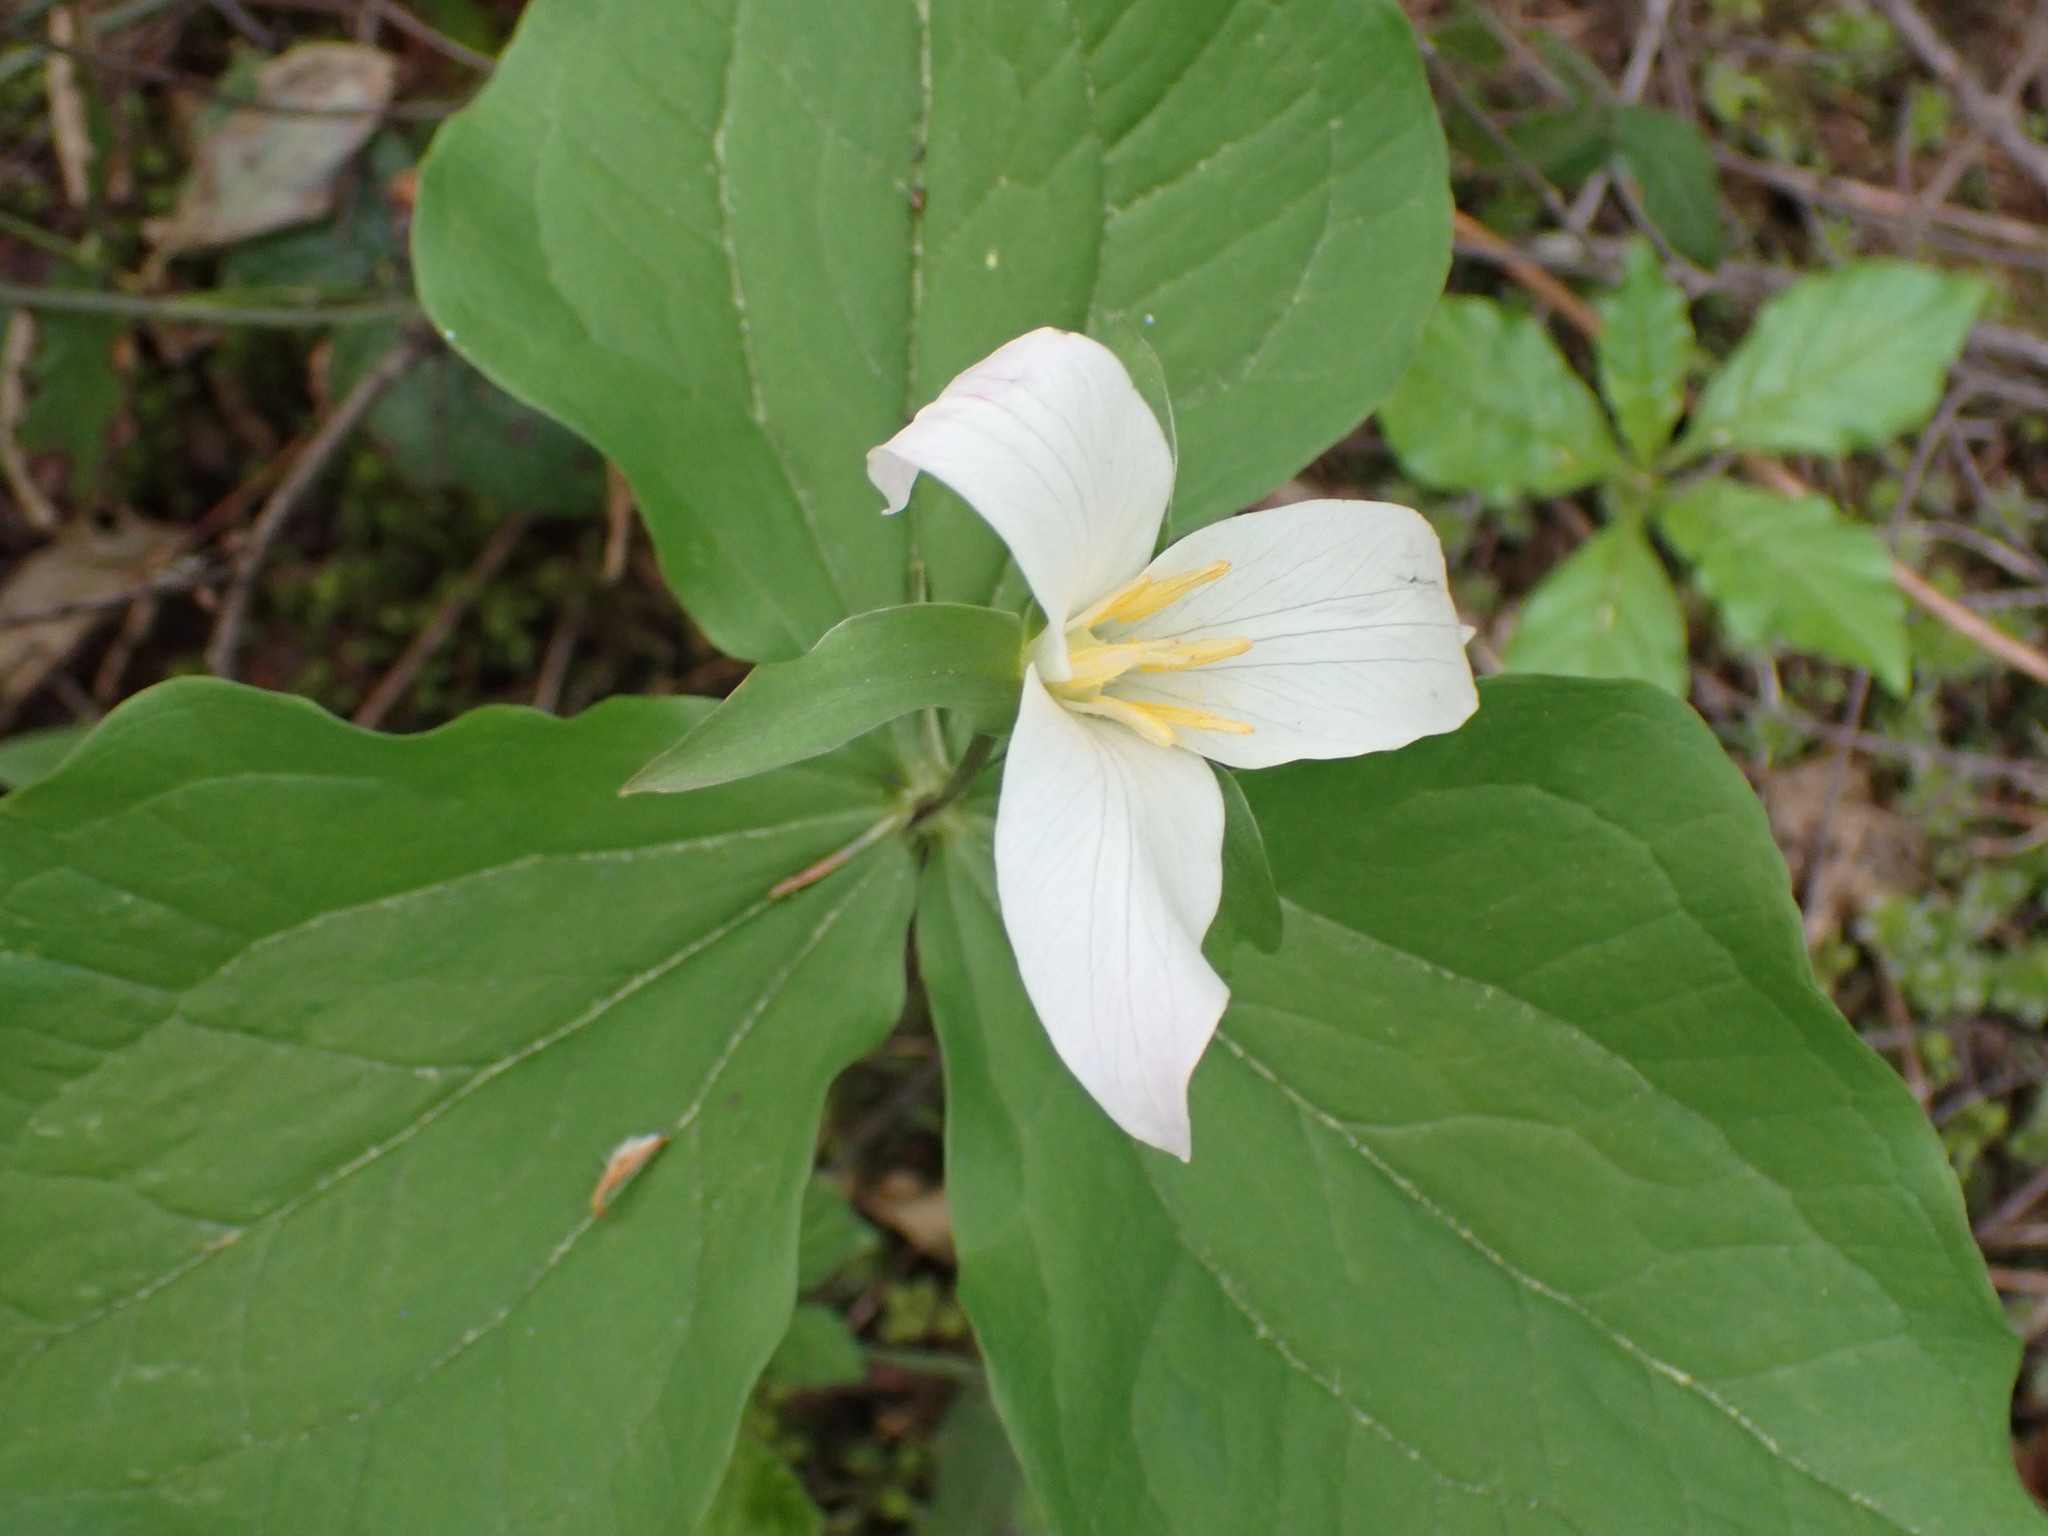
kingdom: Plantae
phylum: Tracheophyta
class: Liliopsida
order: Liliales
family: Melanthiaceae
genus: Trillium
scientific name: Trillium ovatum
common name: Pacific trillium
